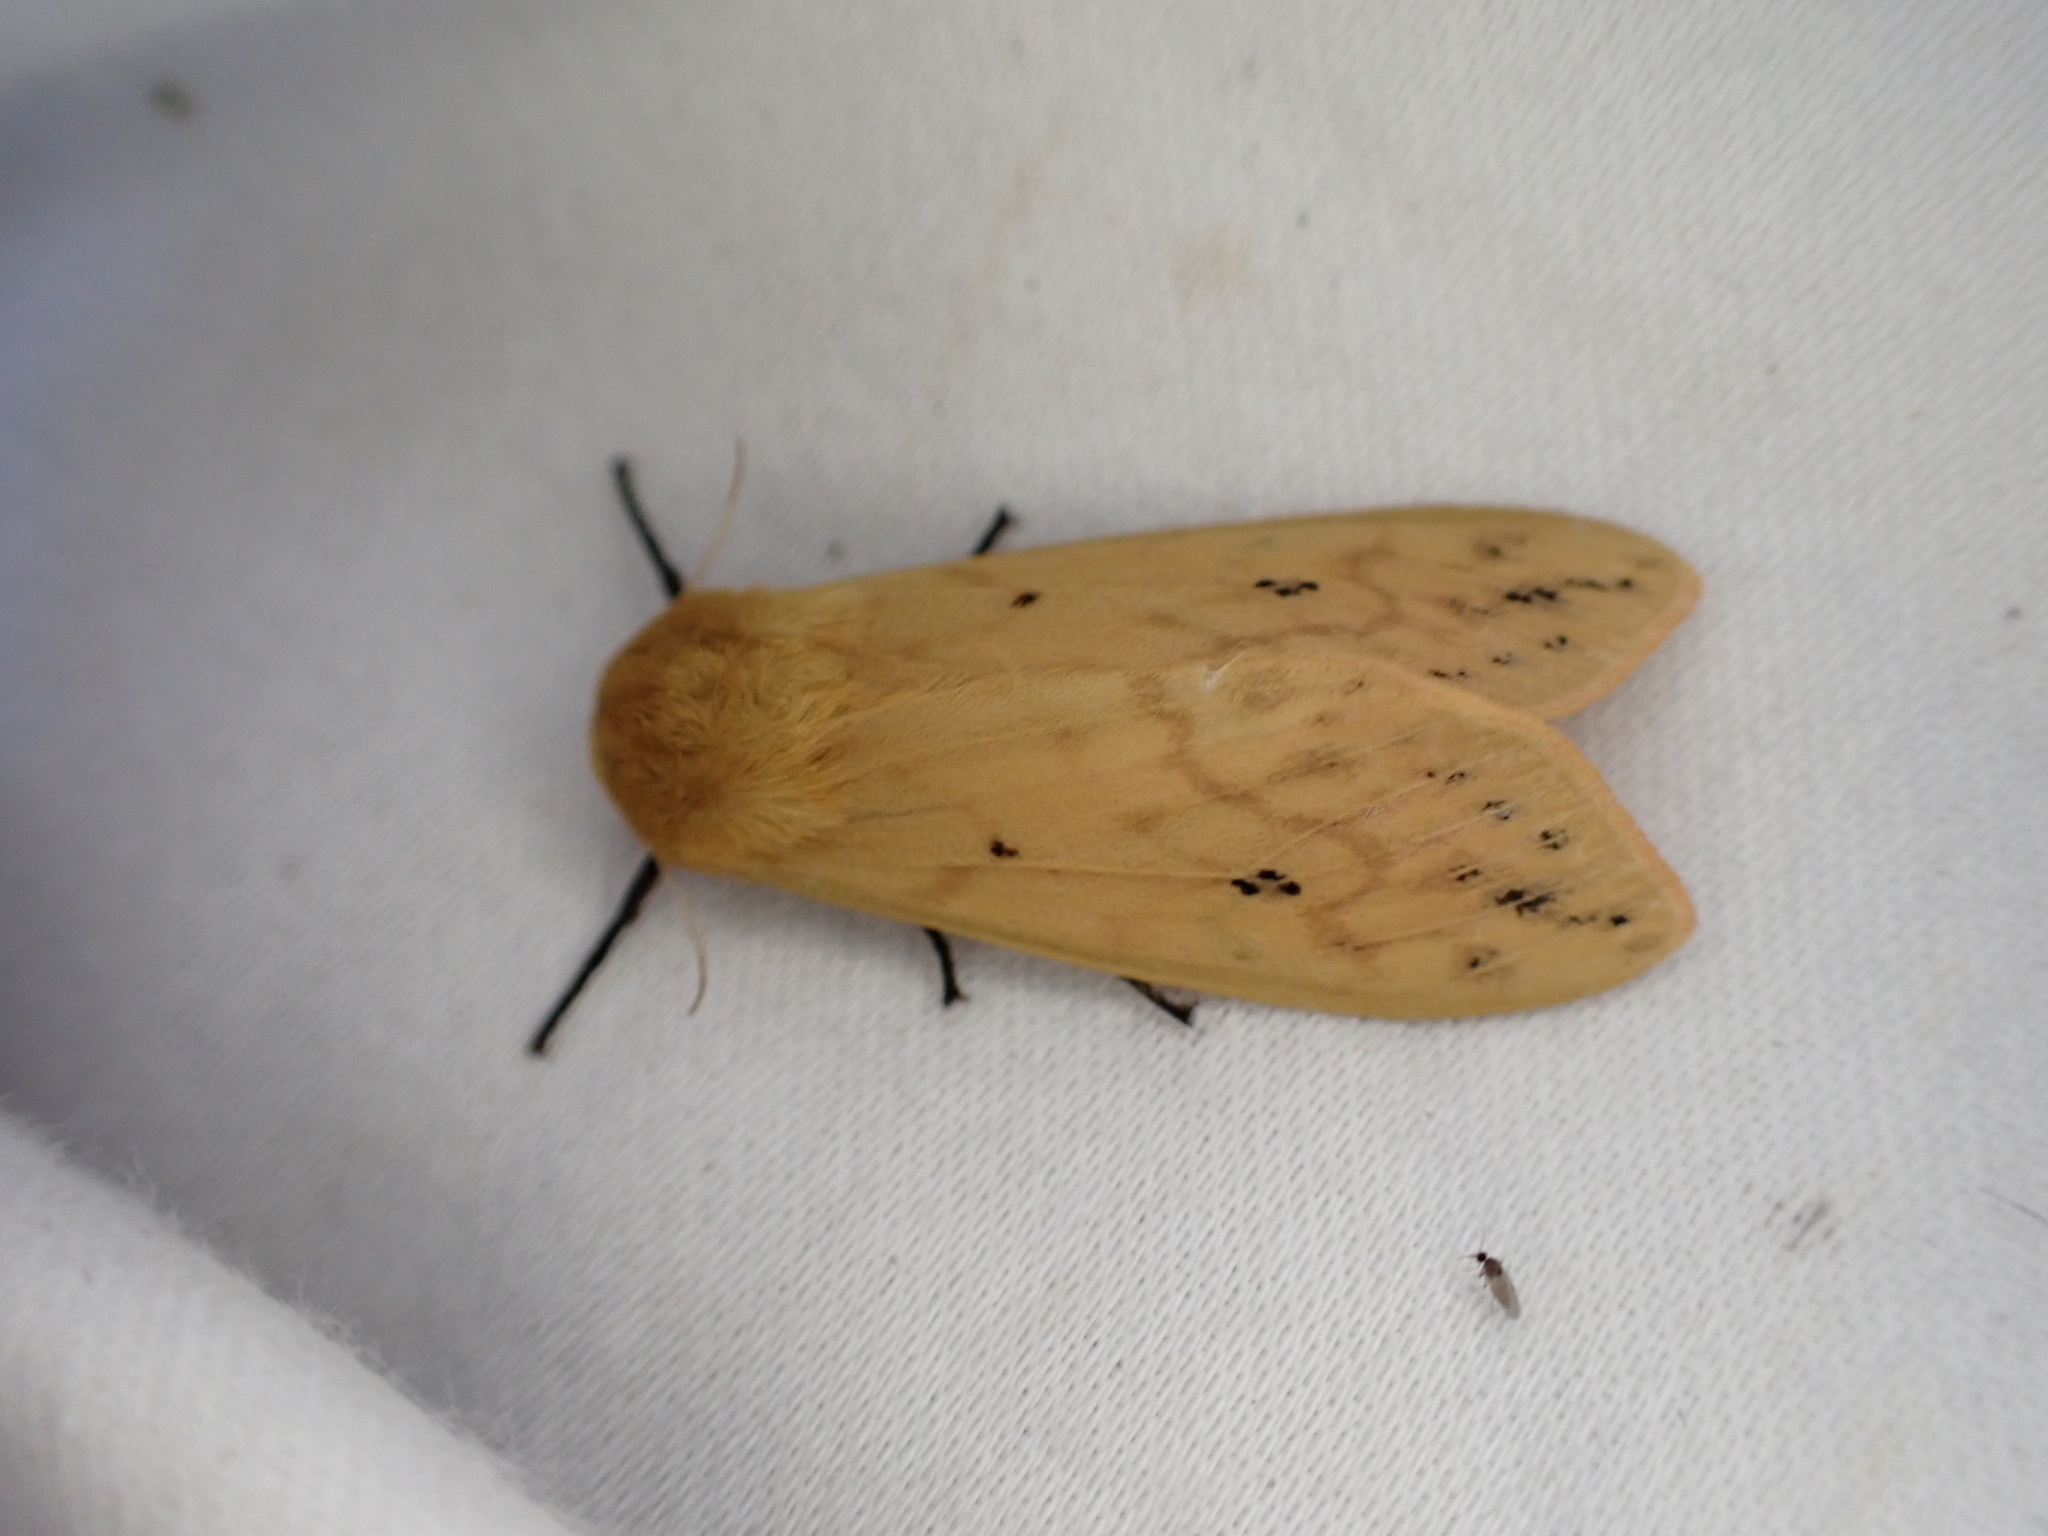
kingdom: Animalia
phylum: Arthropoda
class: Insecta
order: Lepidoptera
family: Erebidae
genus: Pyrrharctia
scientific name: Pyrrharctia isabella
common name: Isabella tiger moth
